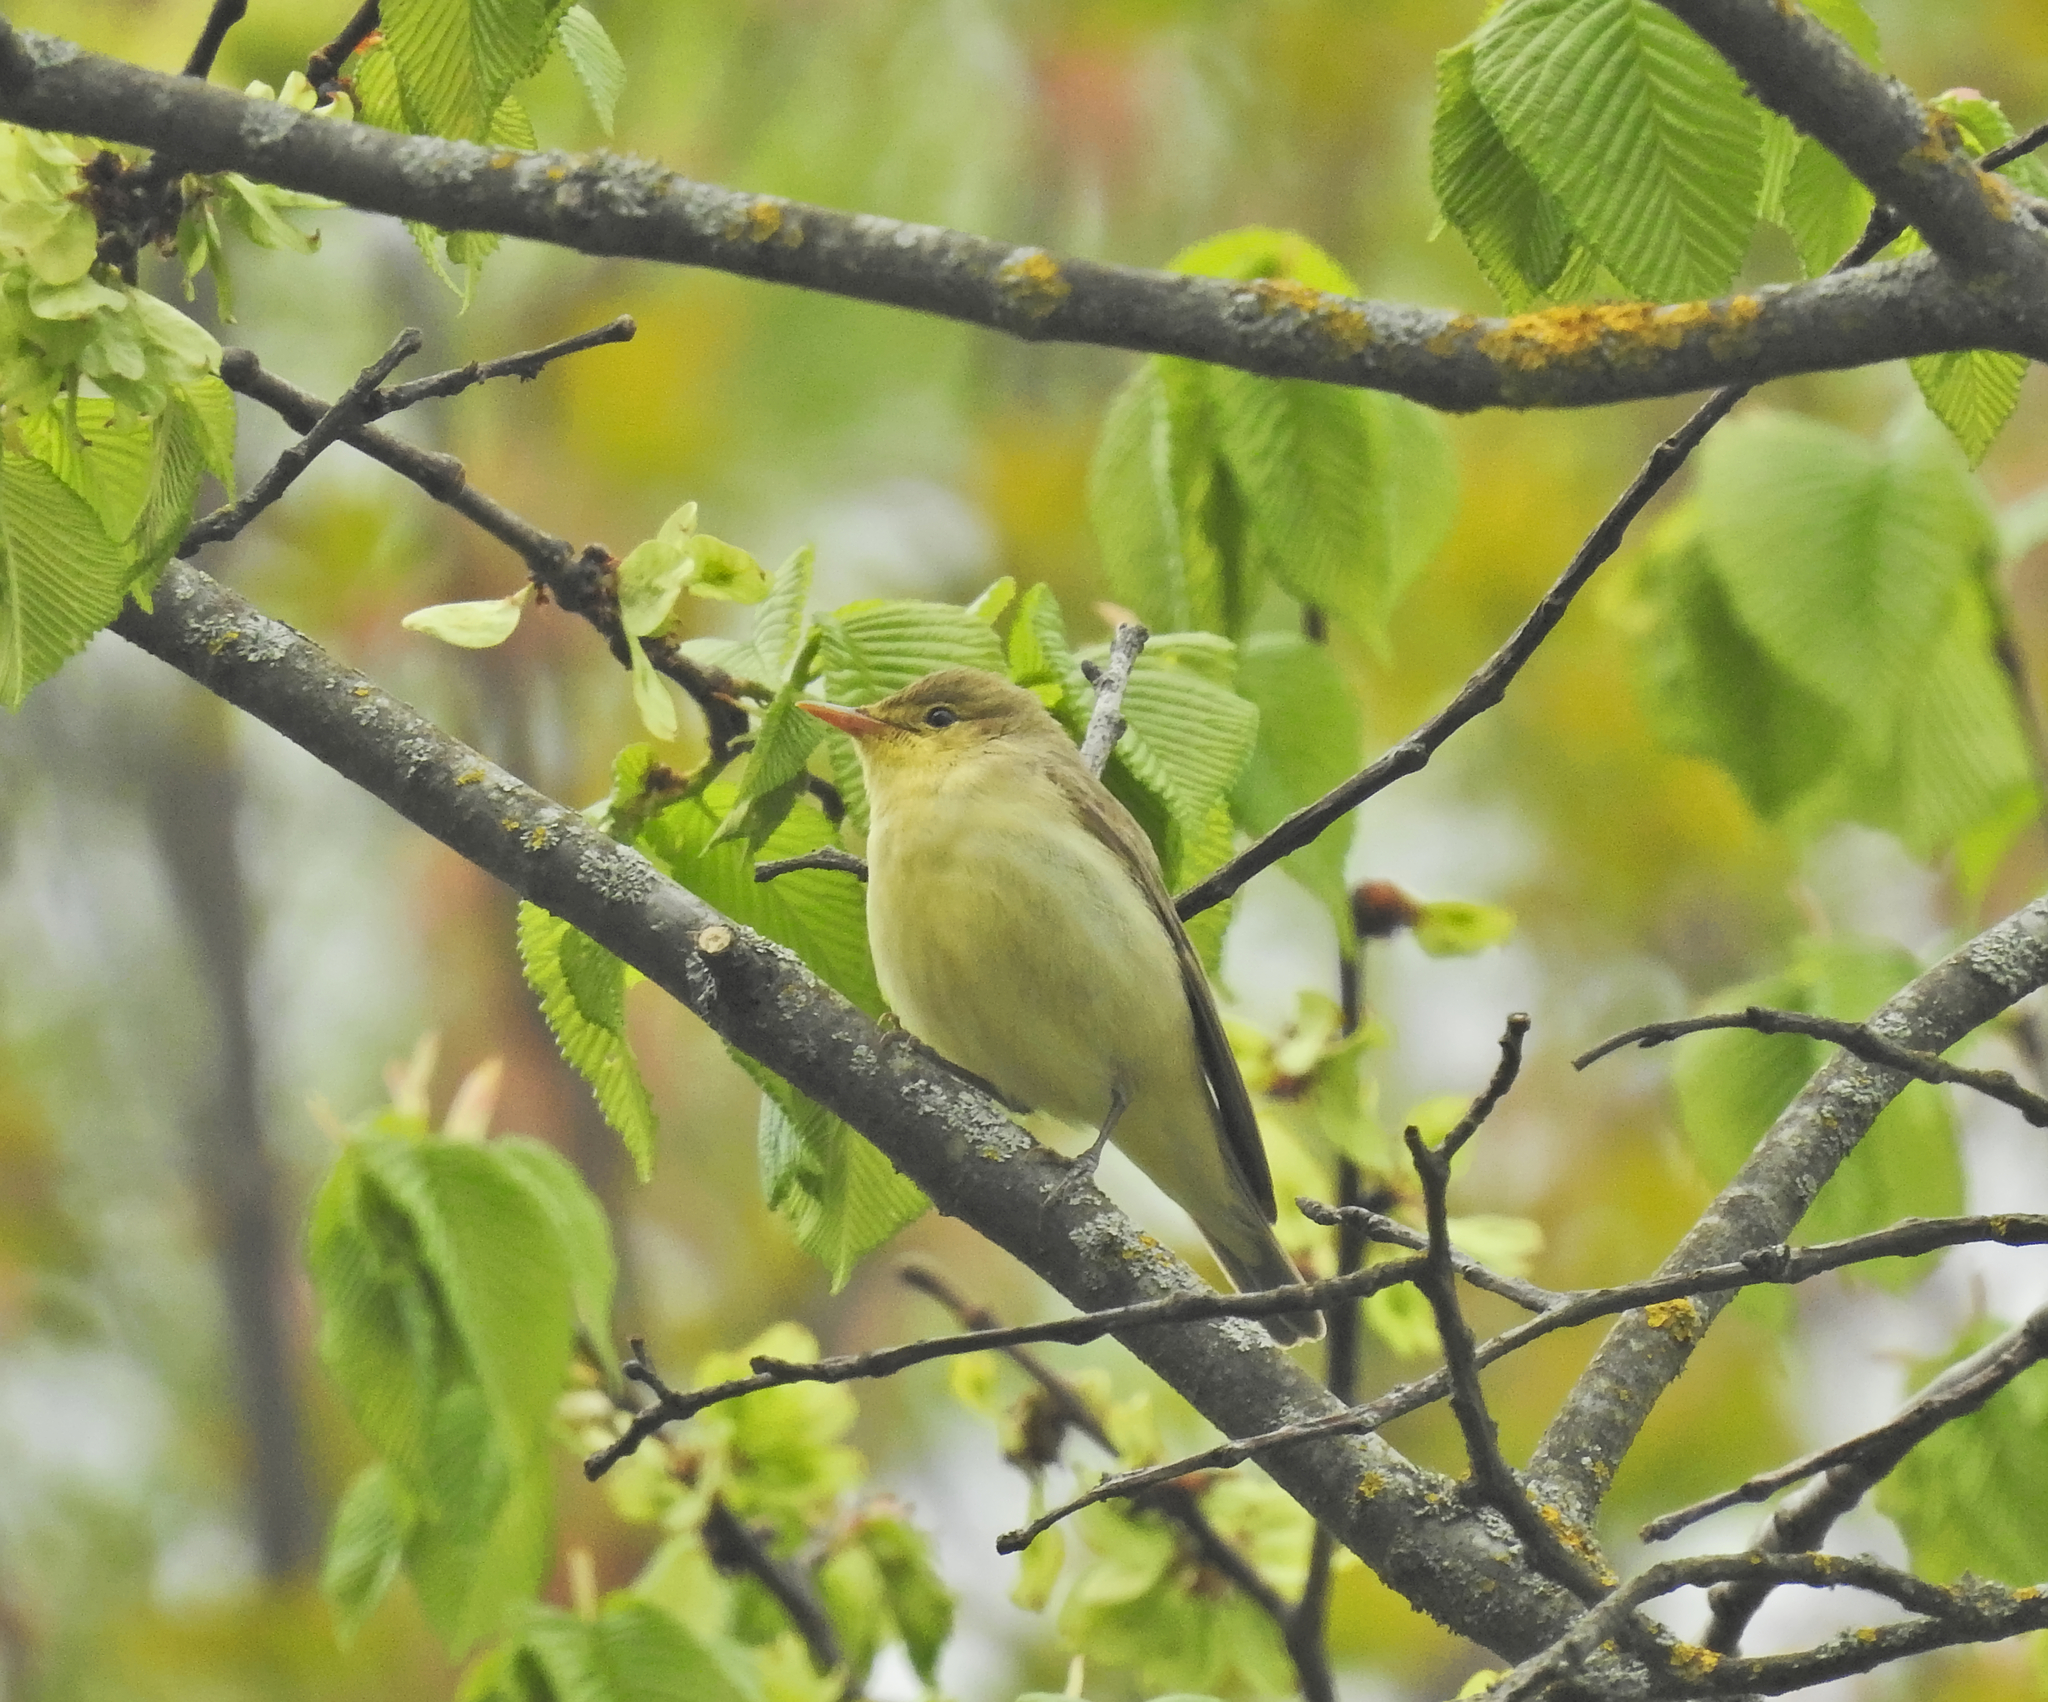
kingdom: Animalia
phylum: Chordata
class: Aves
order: Passeriformes
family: Acrocephalidae
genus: Hippolais
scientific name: Hippolais icterina
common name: Icterine warbler
